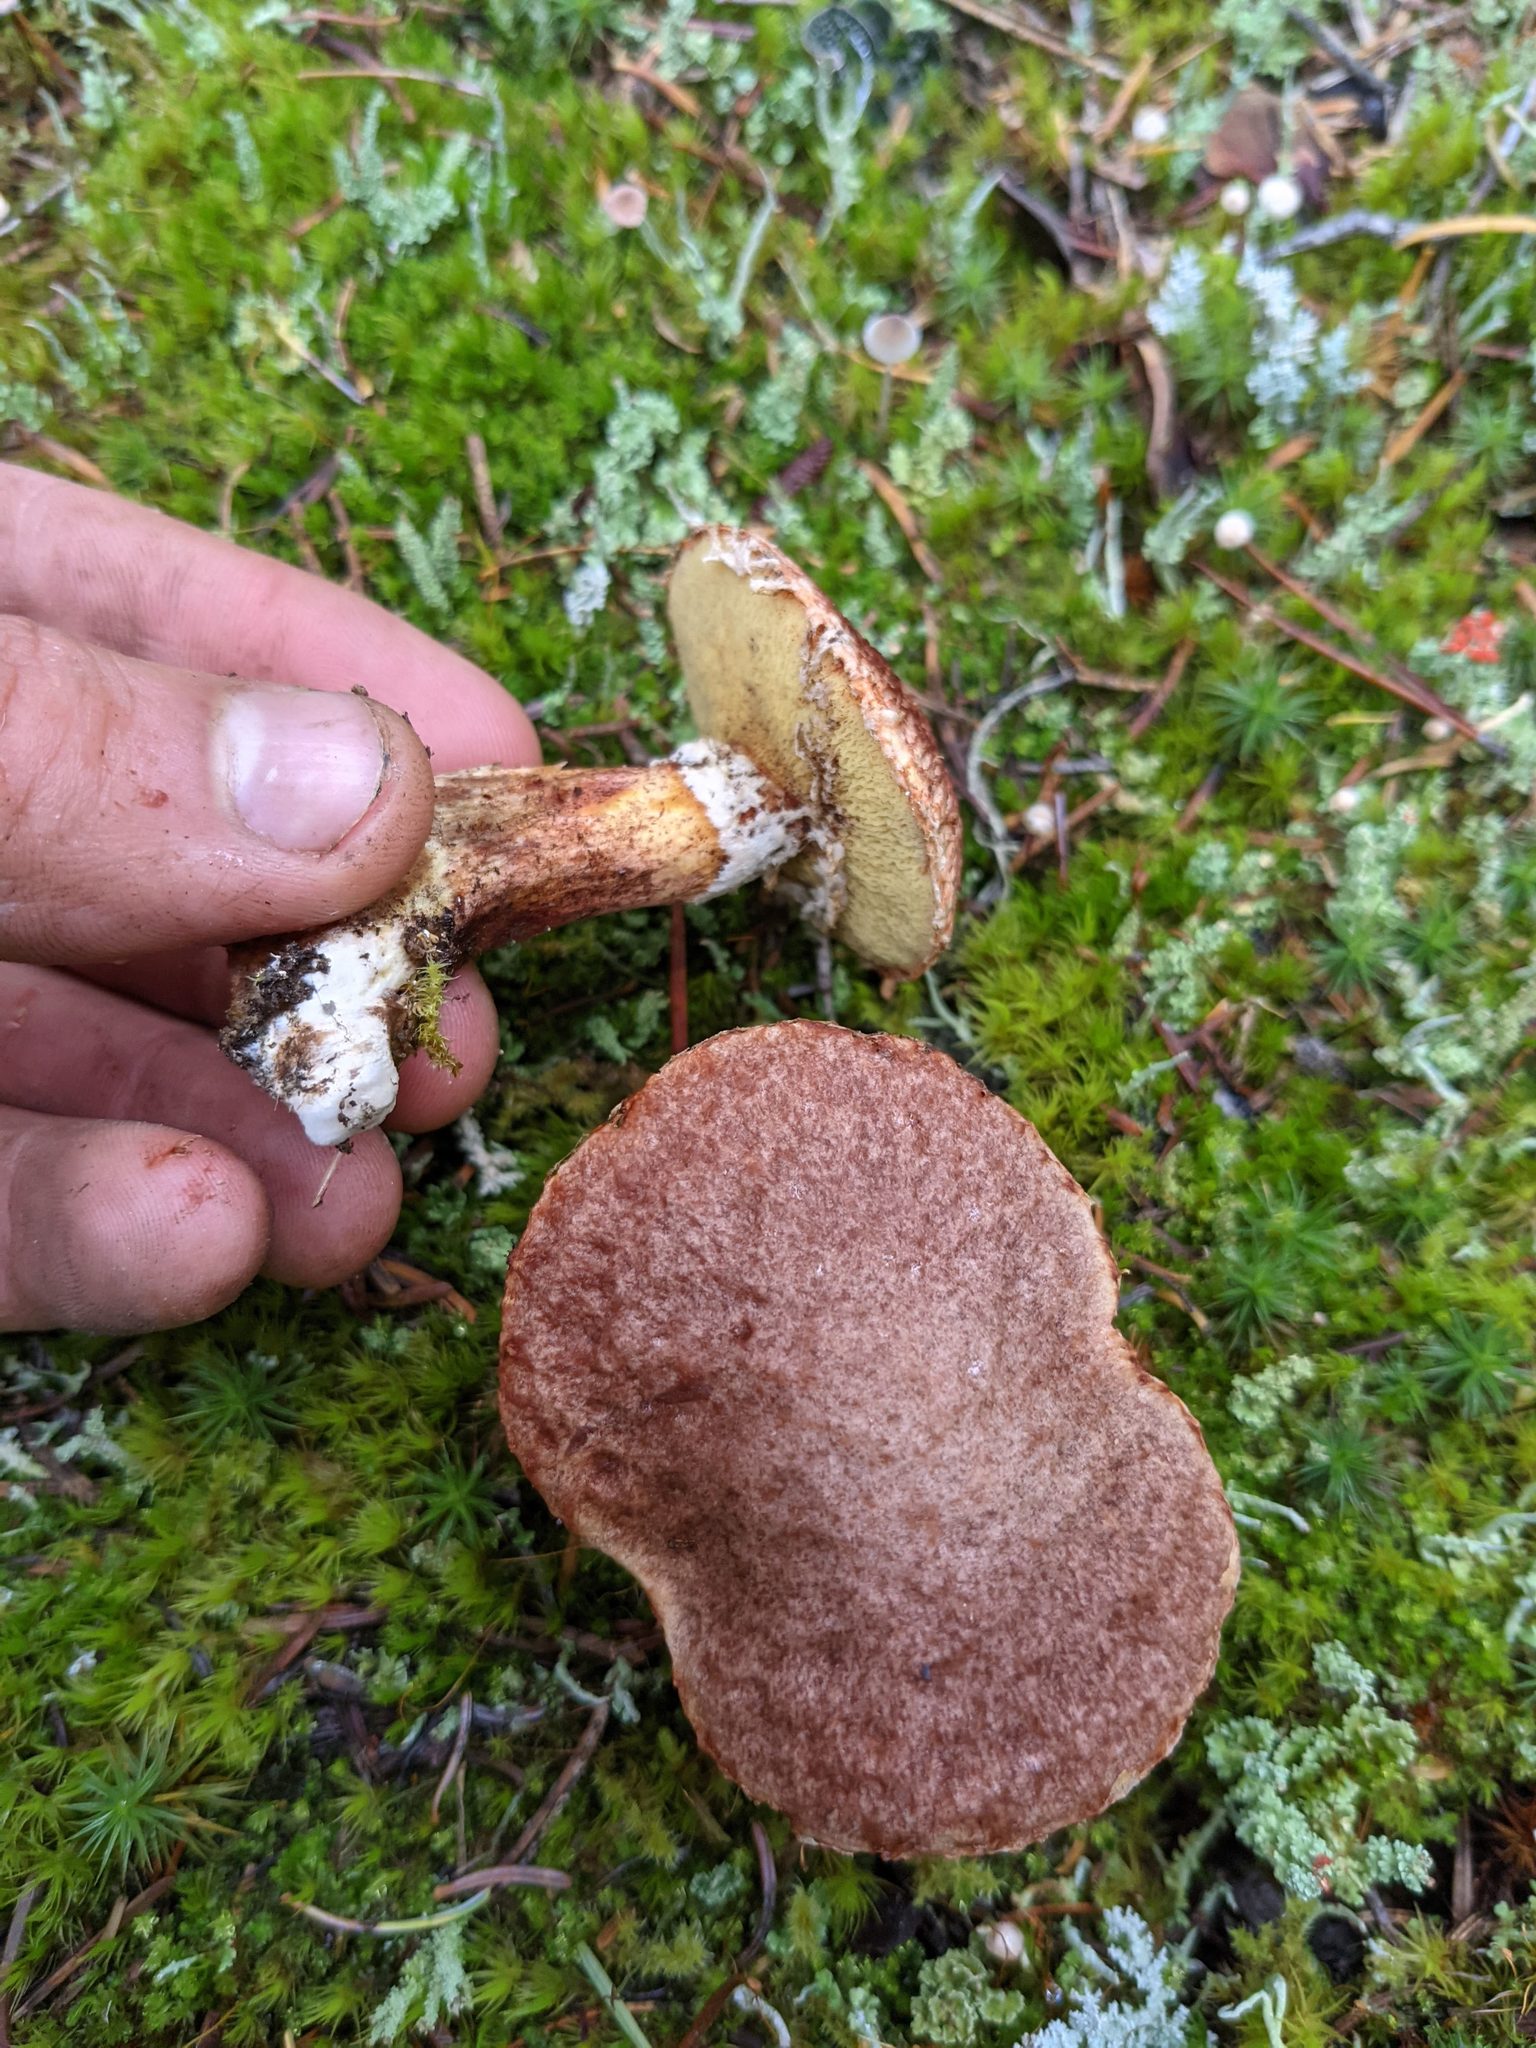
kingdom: Fungi
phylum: Basidiomycota
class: Agaricomycetes
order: Boletales
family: Suillaceae
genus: Suillus
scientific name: Suillus lakei
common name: Western painted suillus
